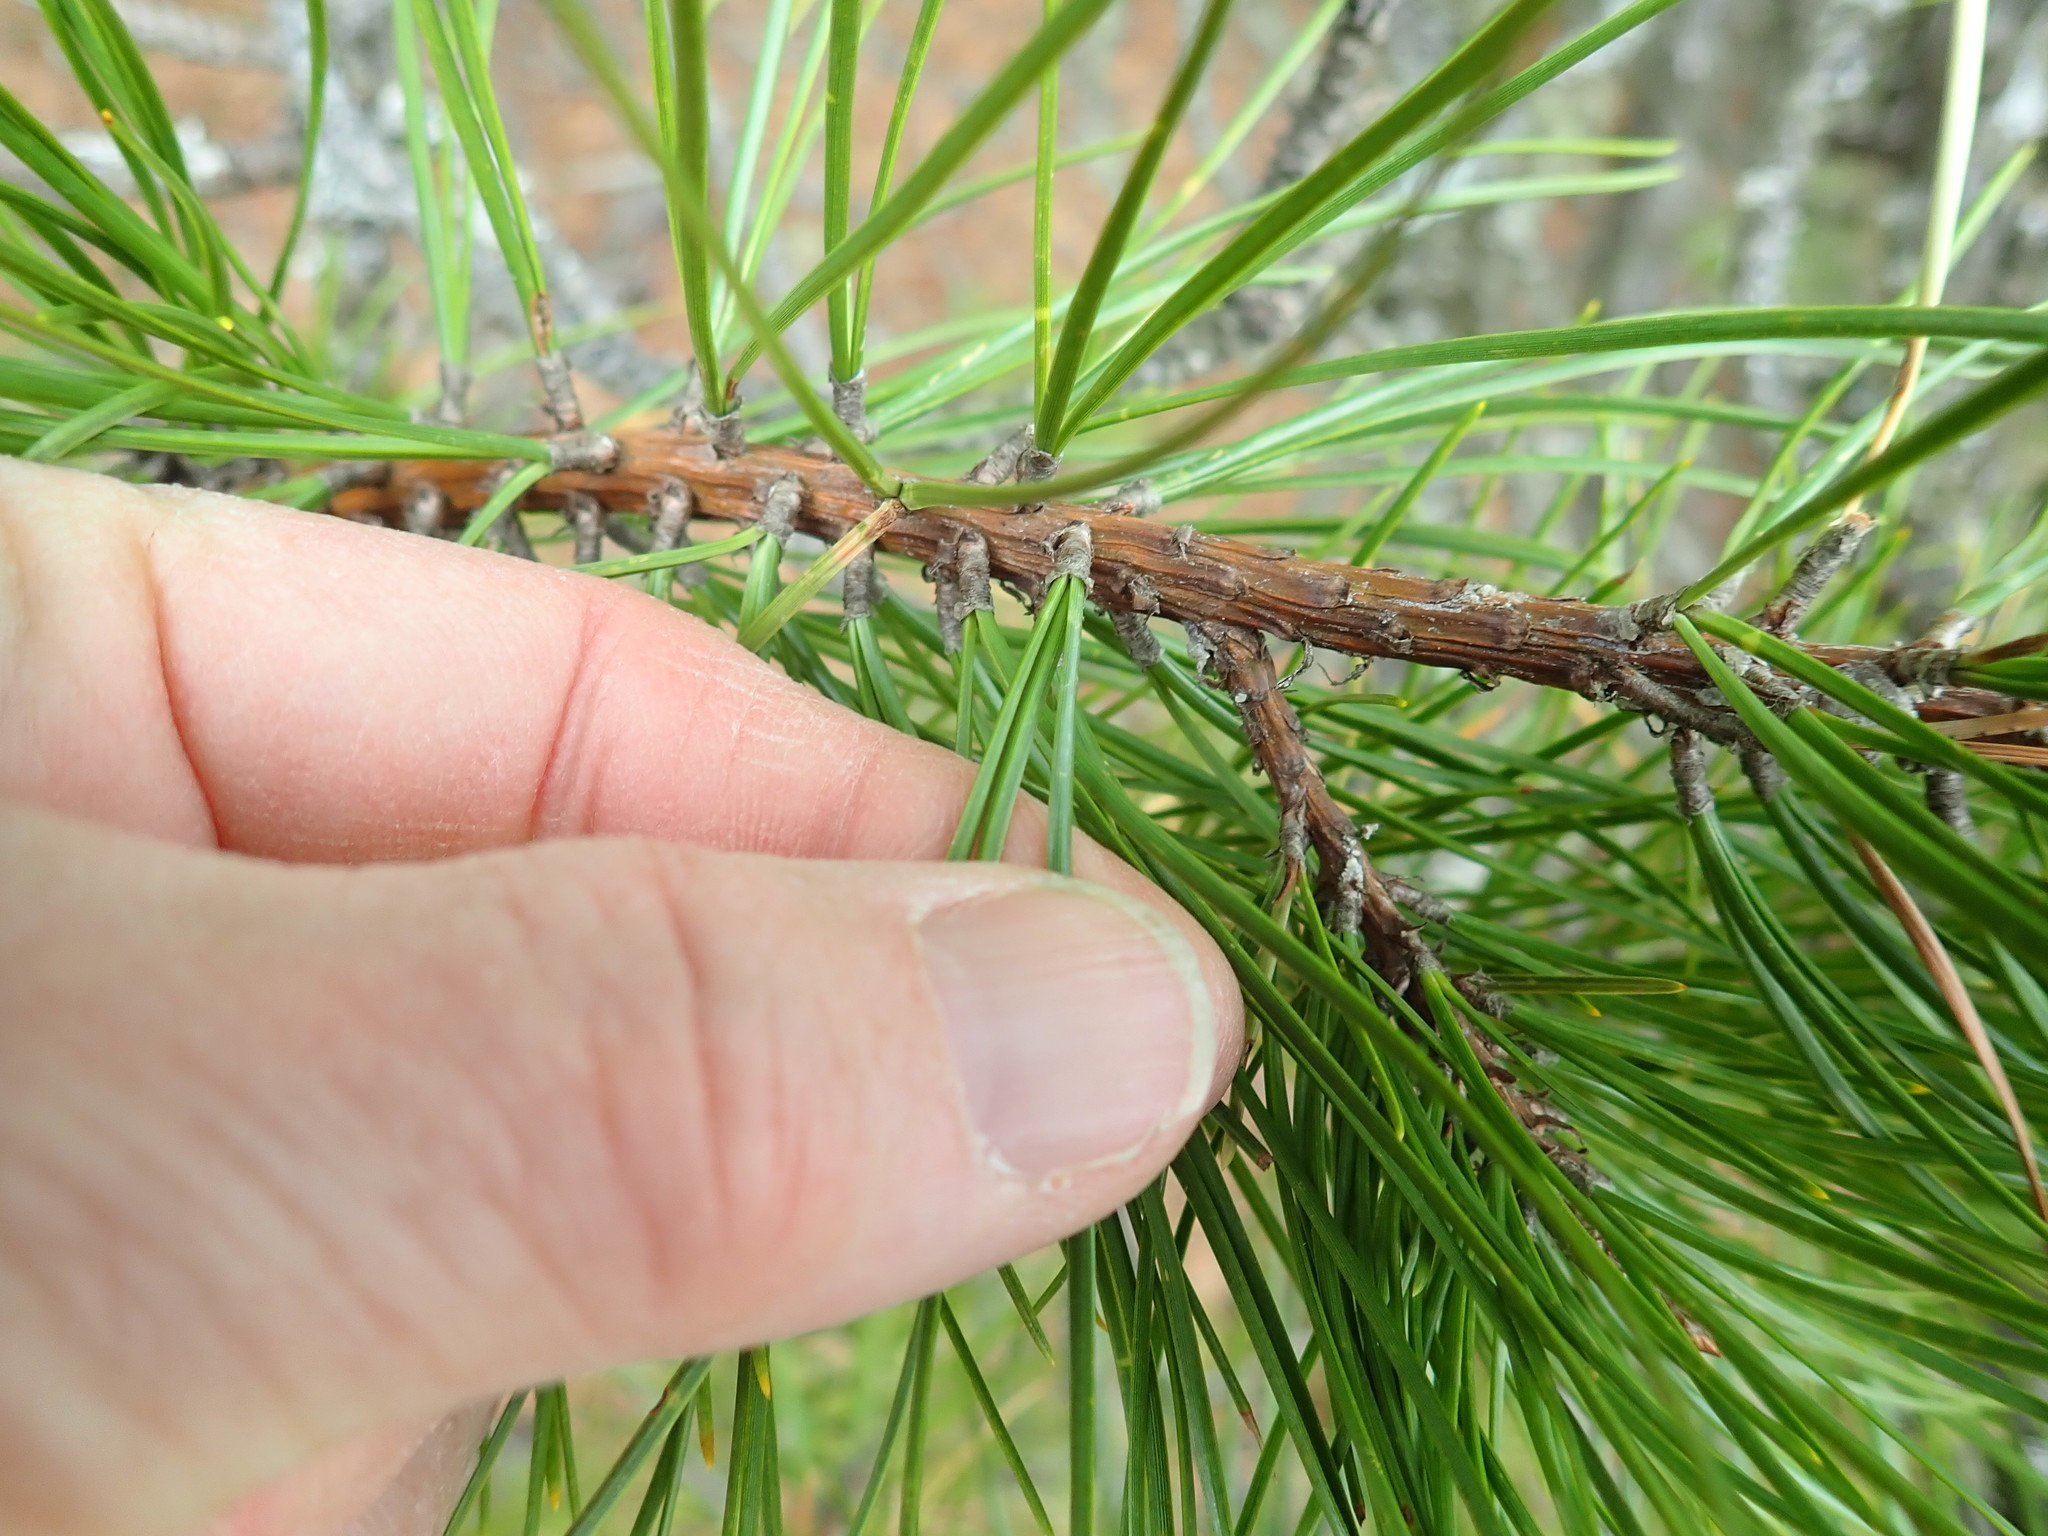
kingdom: Plantae
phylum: Tracheophyta
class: Pinopsida
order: Pinales
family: Pinaceae
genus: Pinus
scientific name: Pinus rigida
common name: Pitch pine
